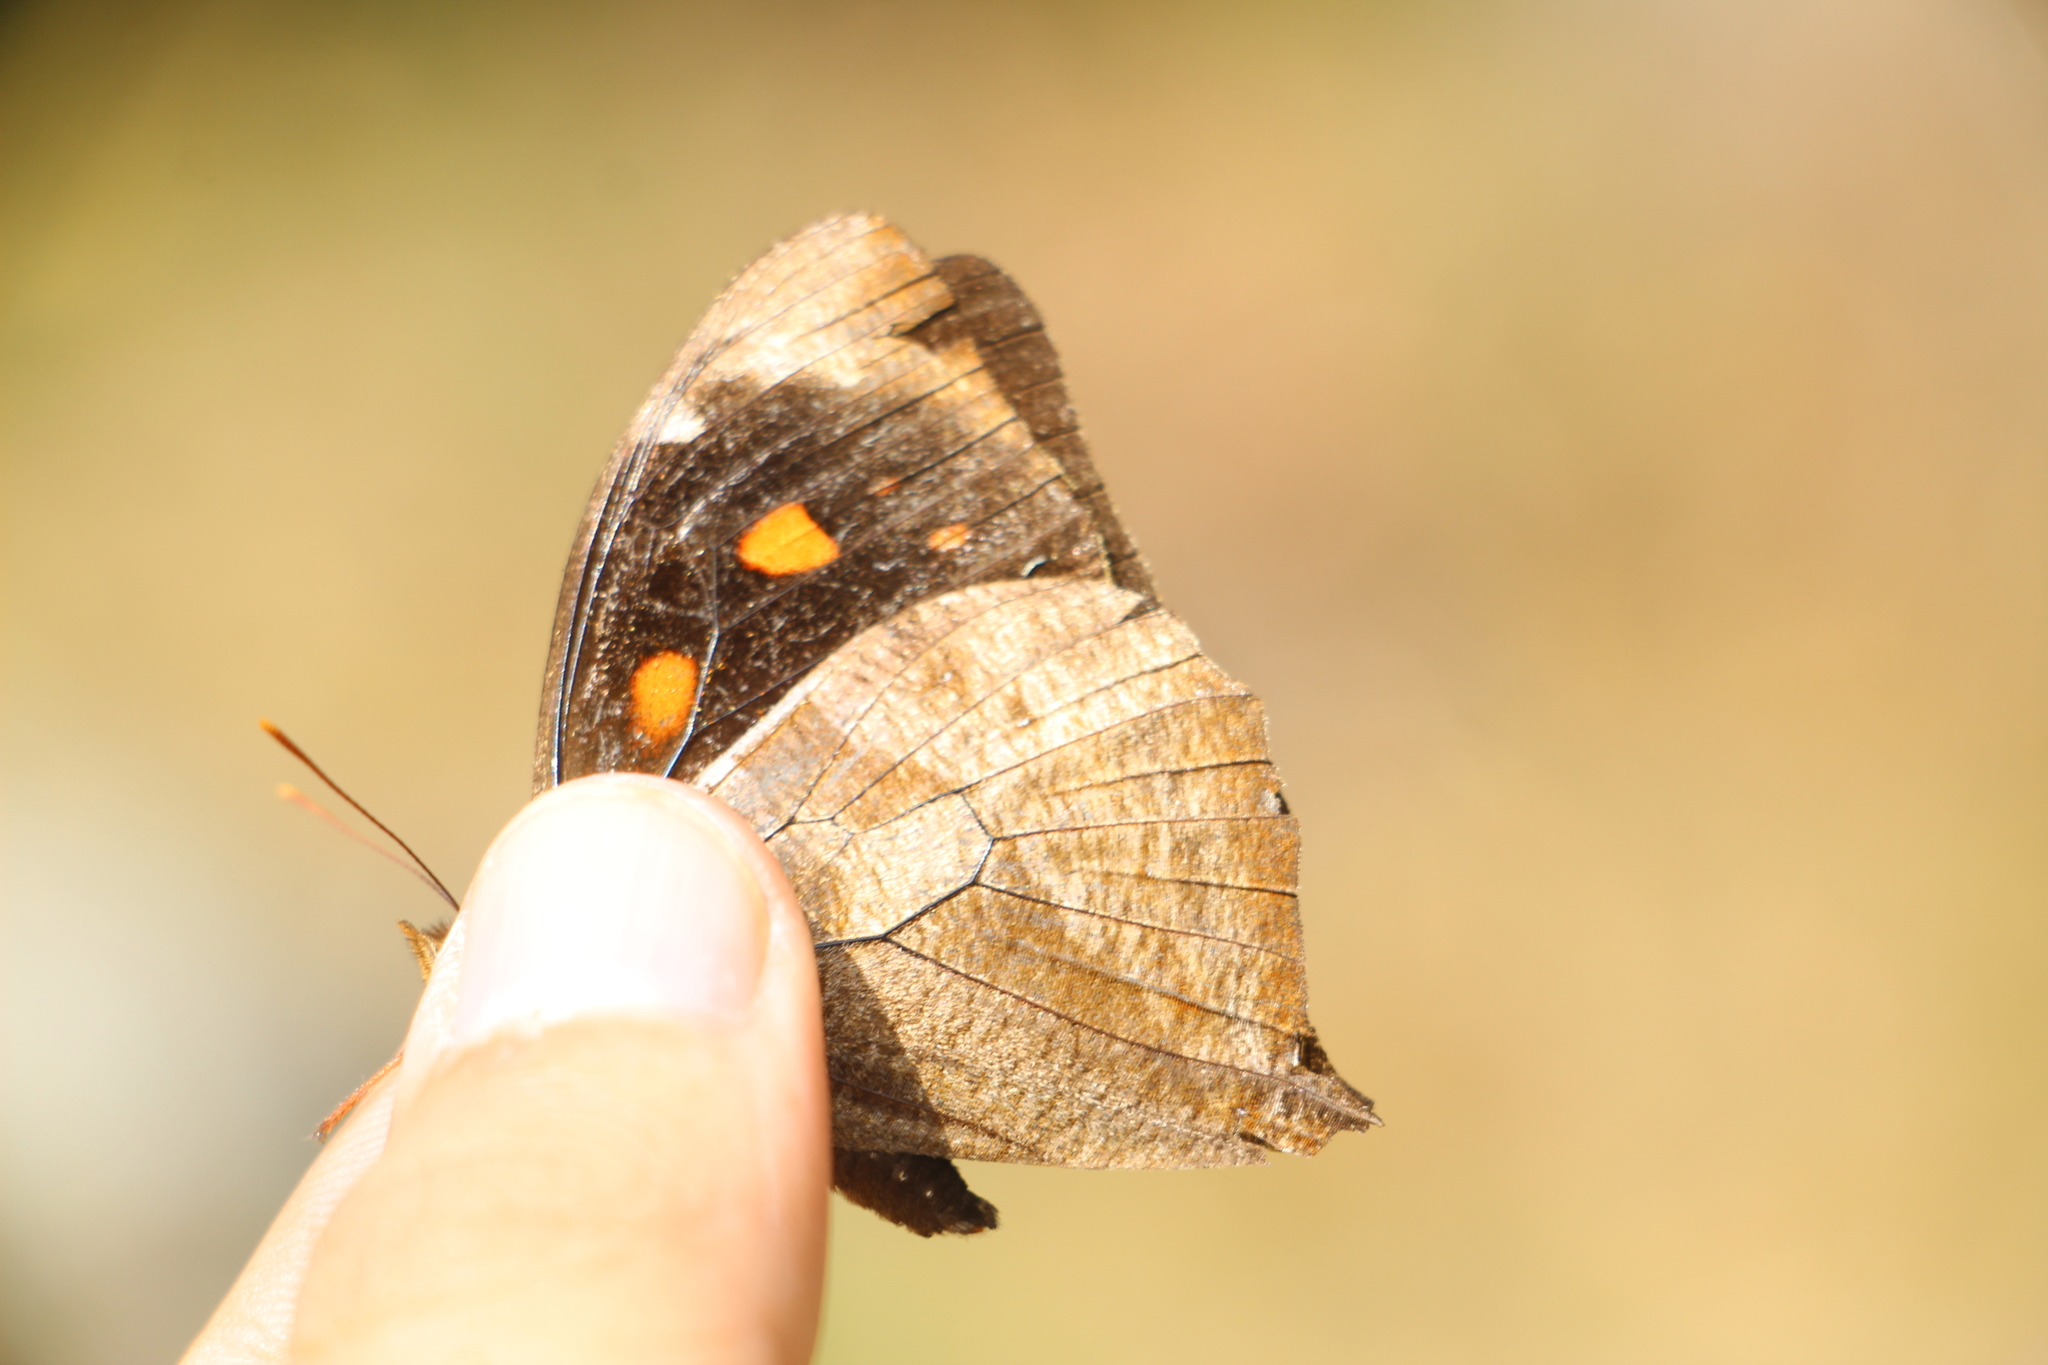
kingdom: Animalia
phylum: Arthropoda
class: Insecta
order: Lepidoptera
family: Nymphalidae
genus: Corades
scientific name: Corades medeba
